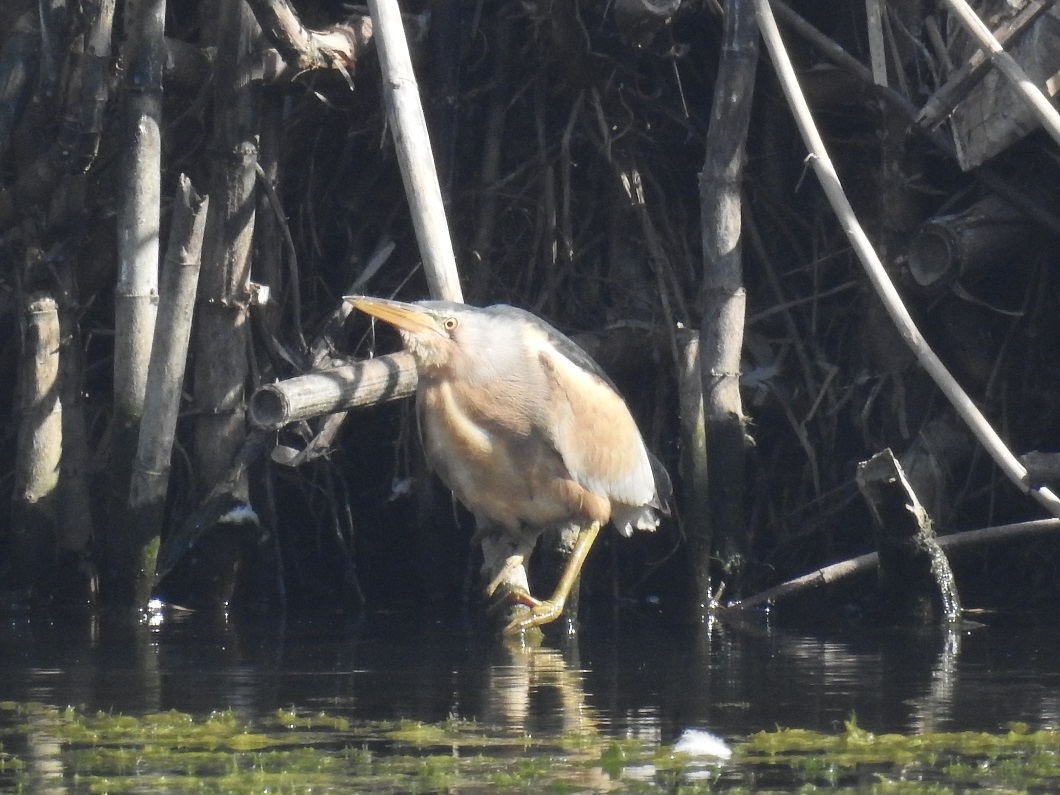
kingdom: Animalia
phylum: Chordata
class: Aves
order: Pelecaniformes
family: Ardeidae
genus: Ixobrychus
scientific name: Ixobrychus minutus
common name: Little bittern
